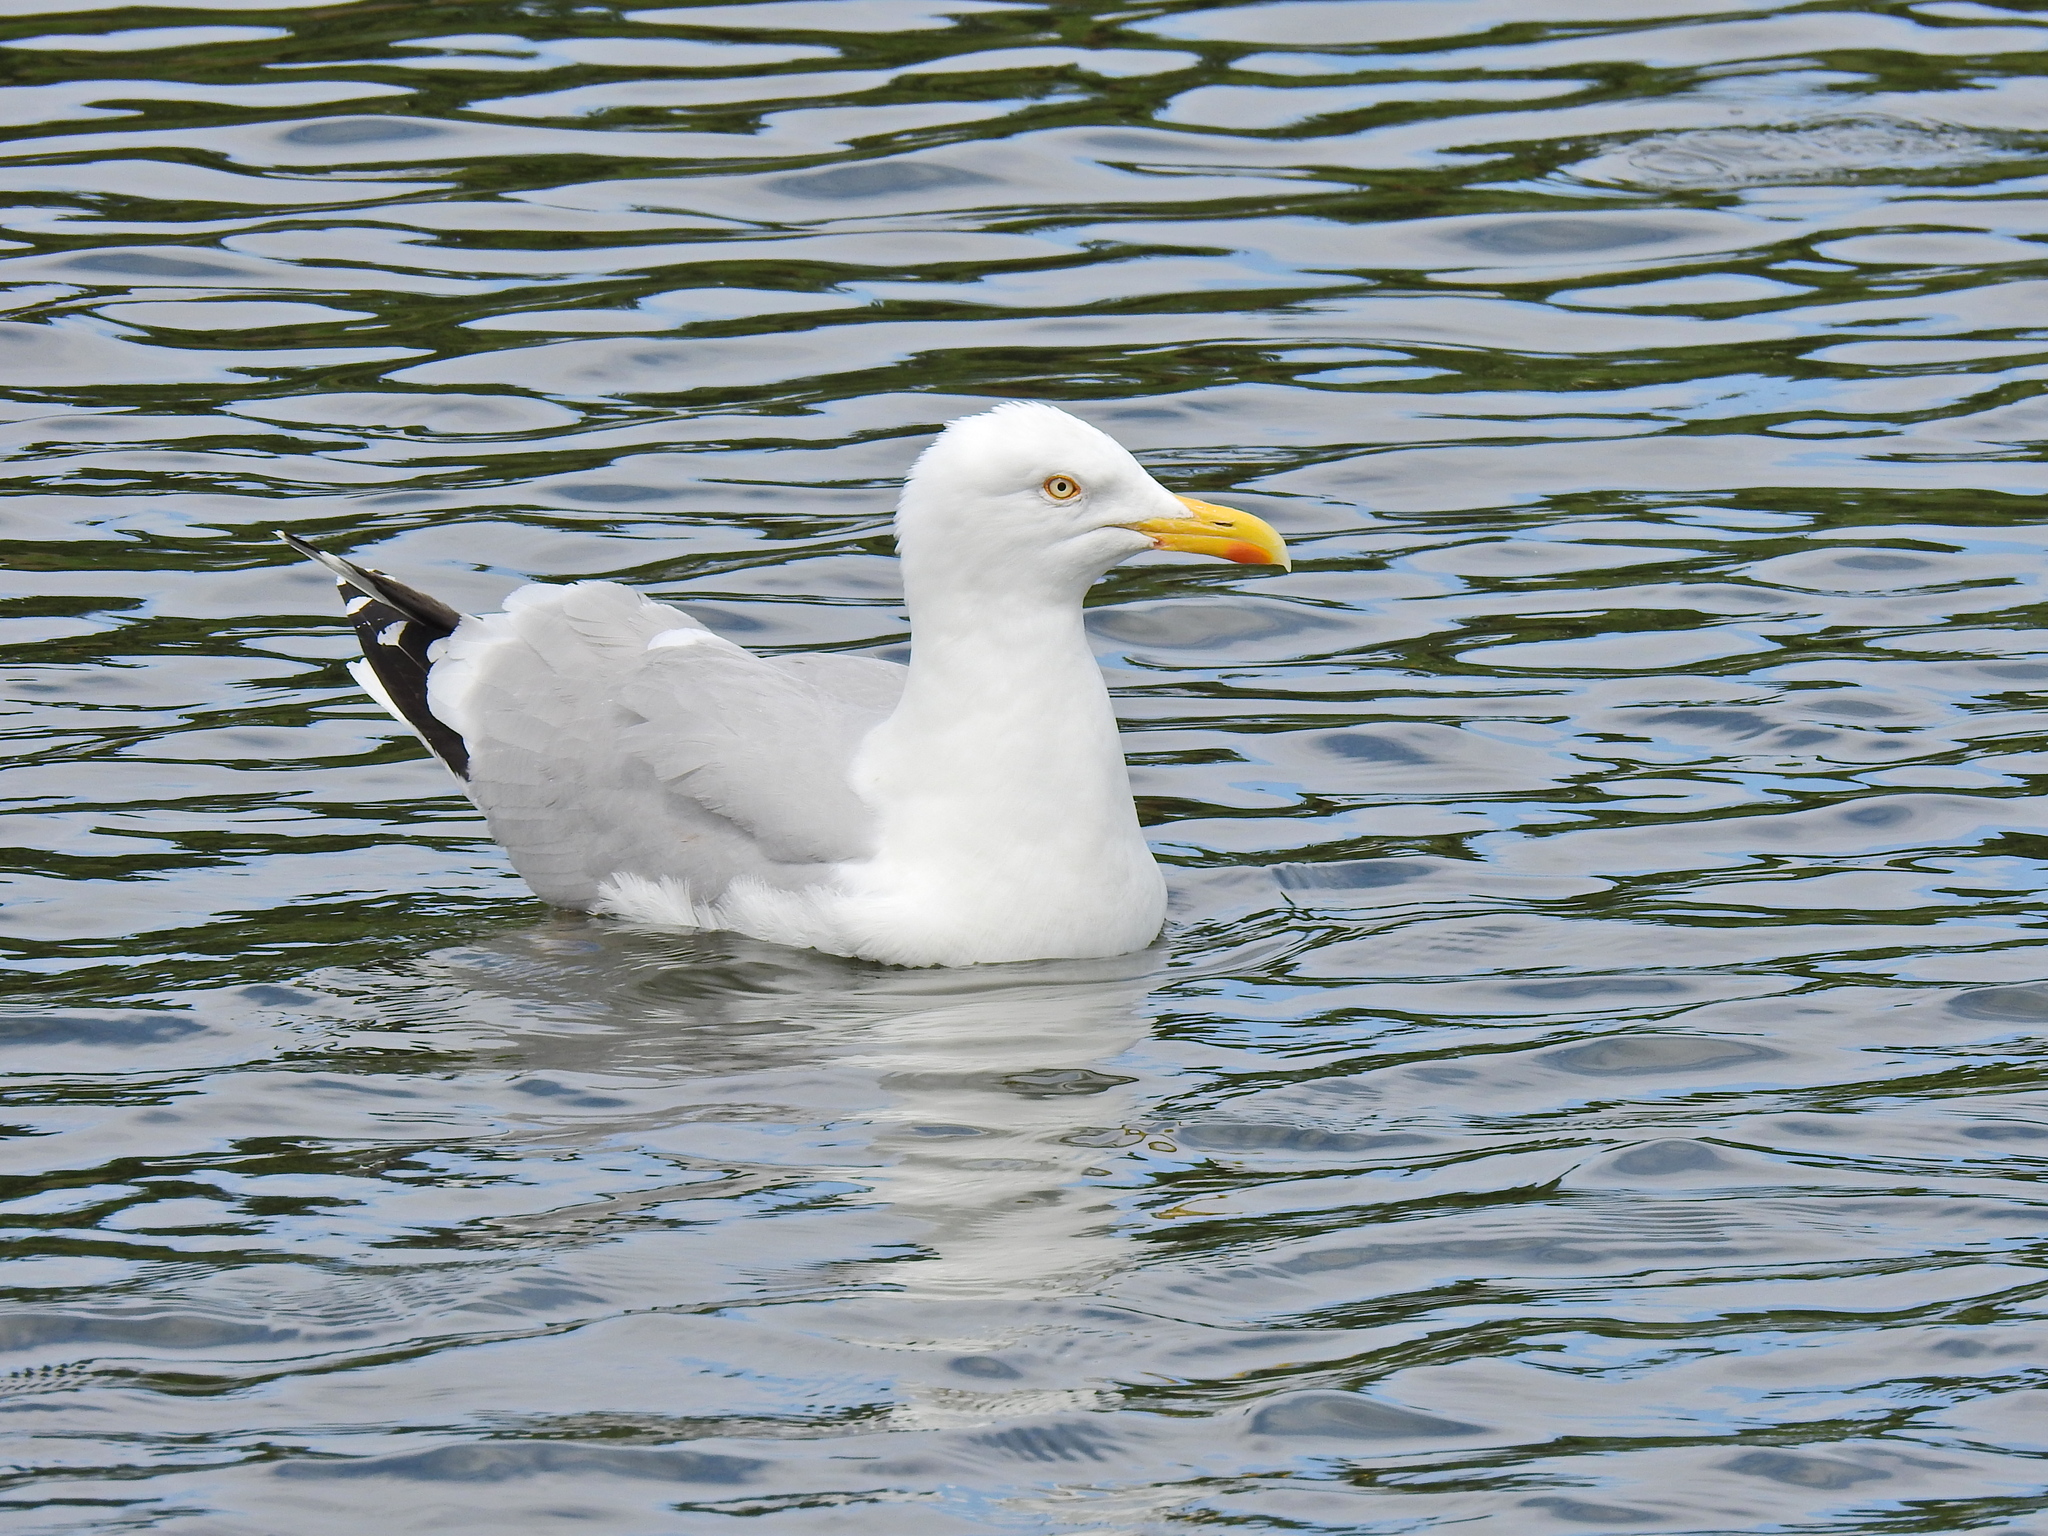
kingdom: Animalia
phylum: Chordata
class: Aves
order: Charadriiformes
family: Laridae
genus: Larus
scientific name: Larus argentatus
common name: Herring gull
